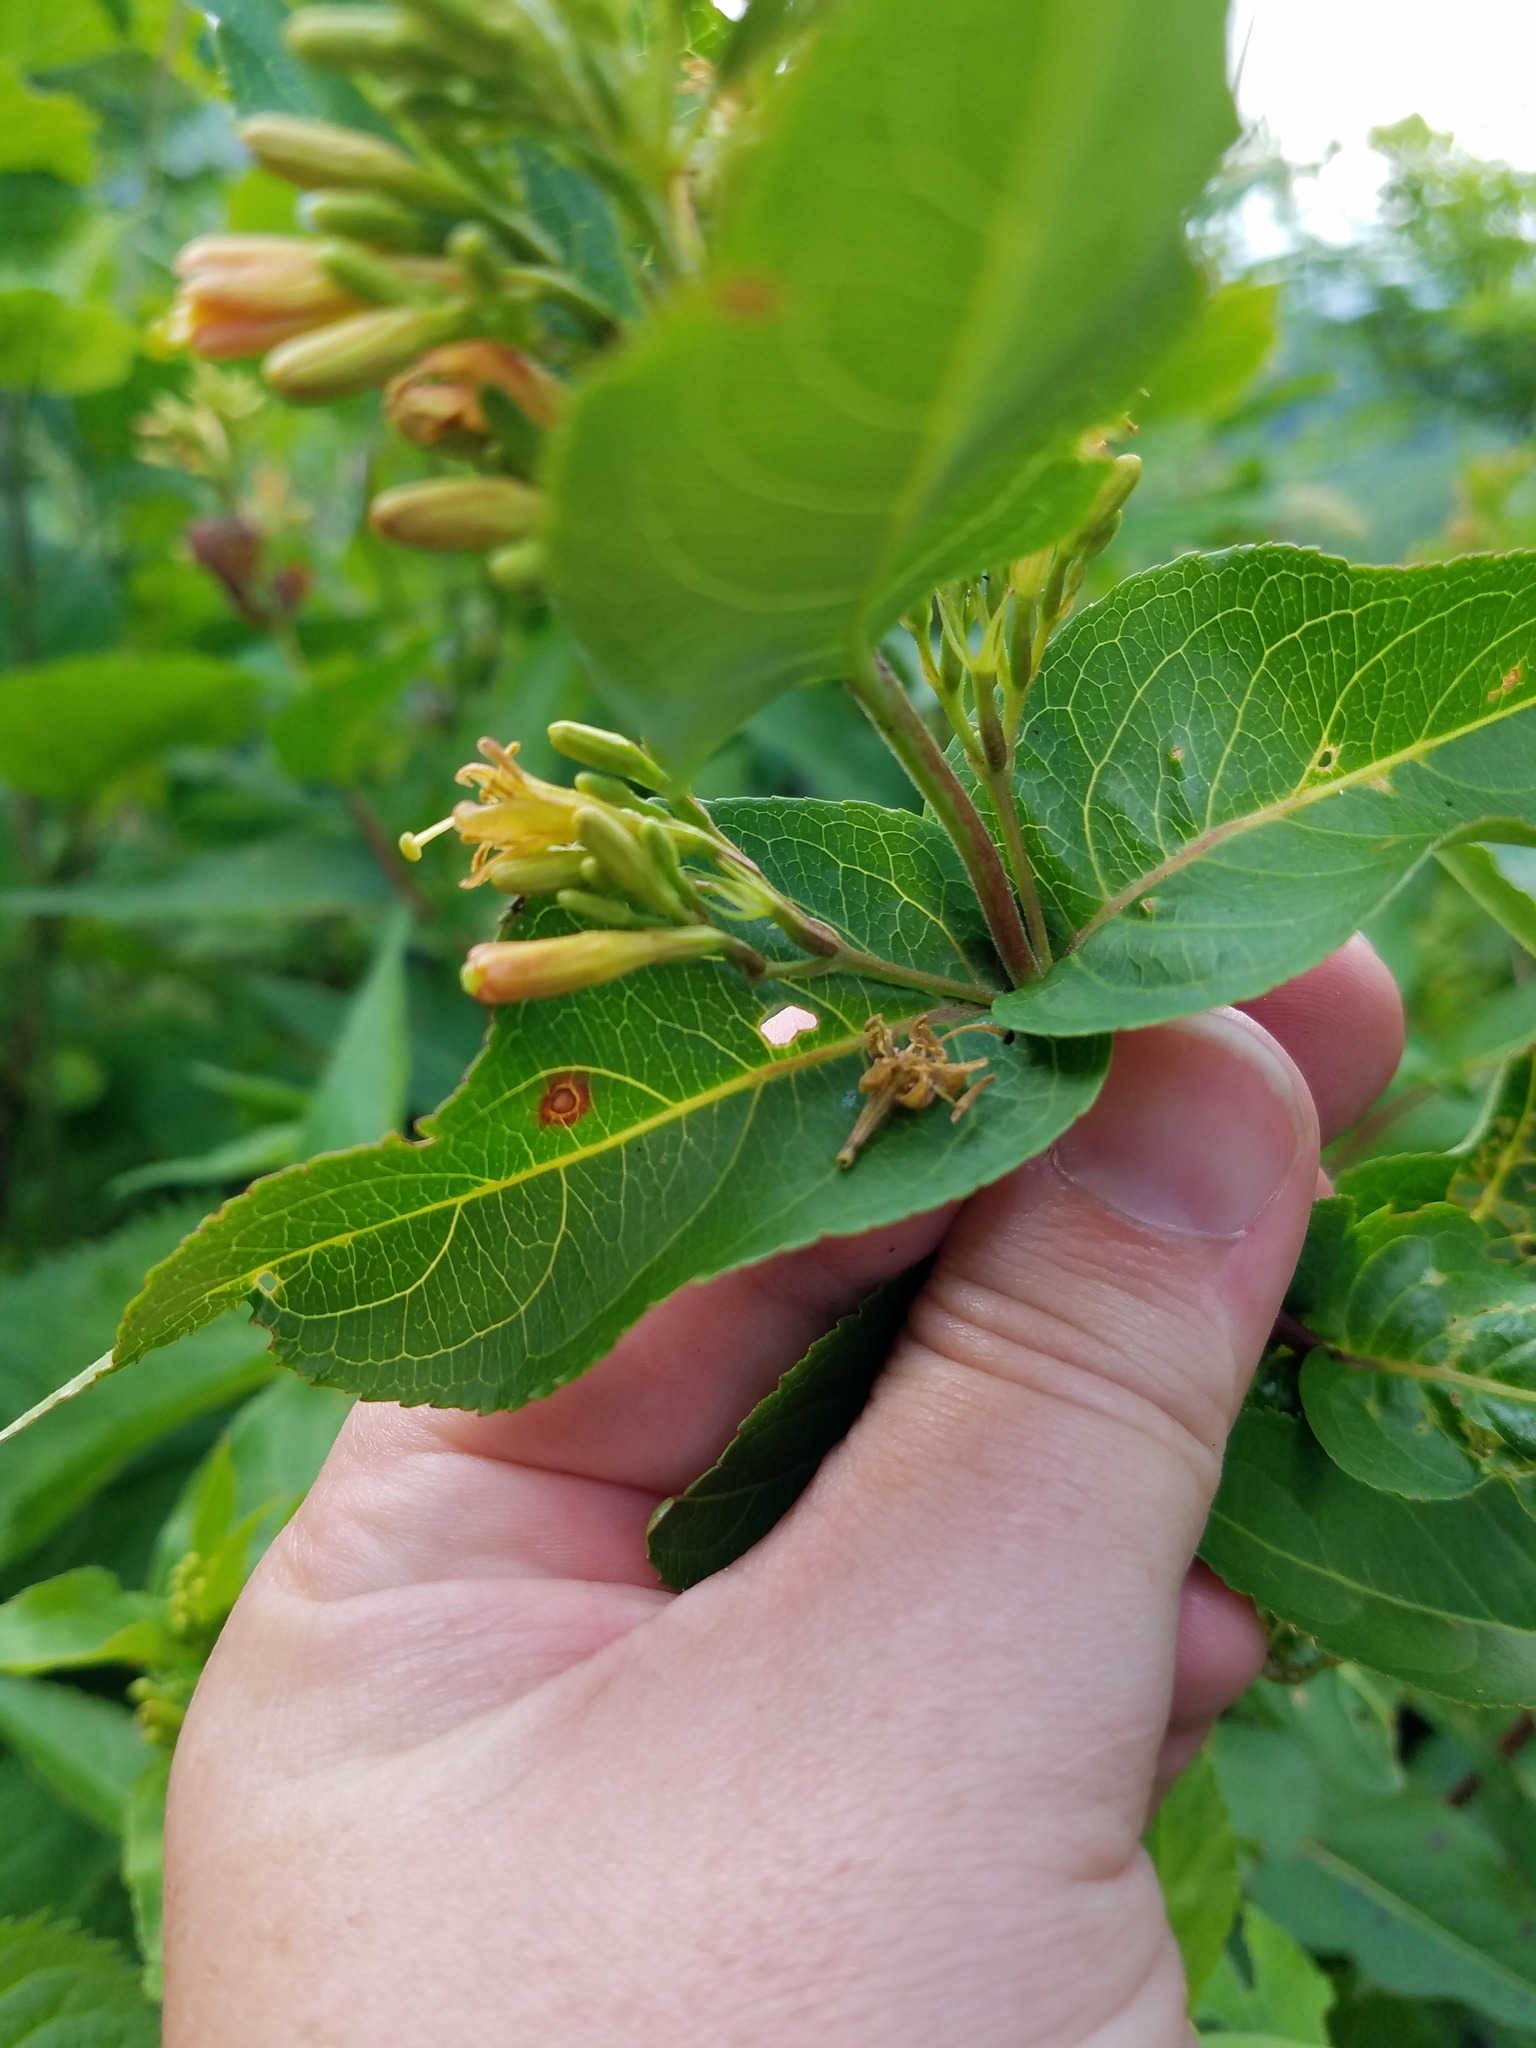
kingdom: Plantae
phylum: Tracheophyta
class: Magnoliopsida
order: Dipsacales
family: Caprifoliaceae
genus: Diervilla
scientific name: Diervilla sessilifolia
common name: Bush-honeysuckle
